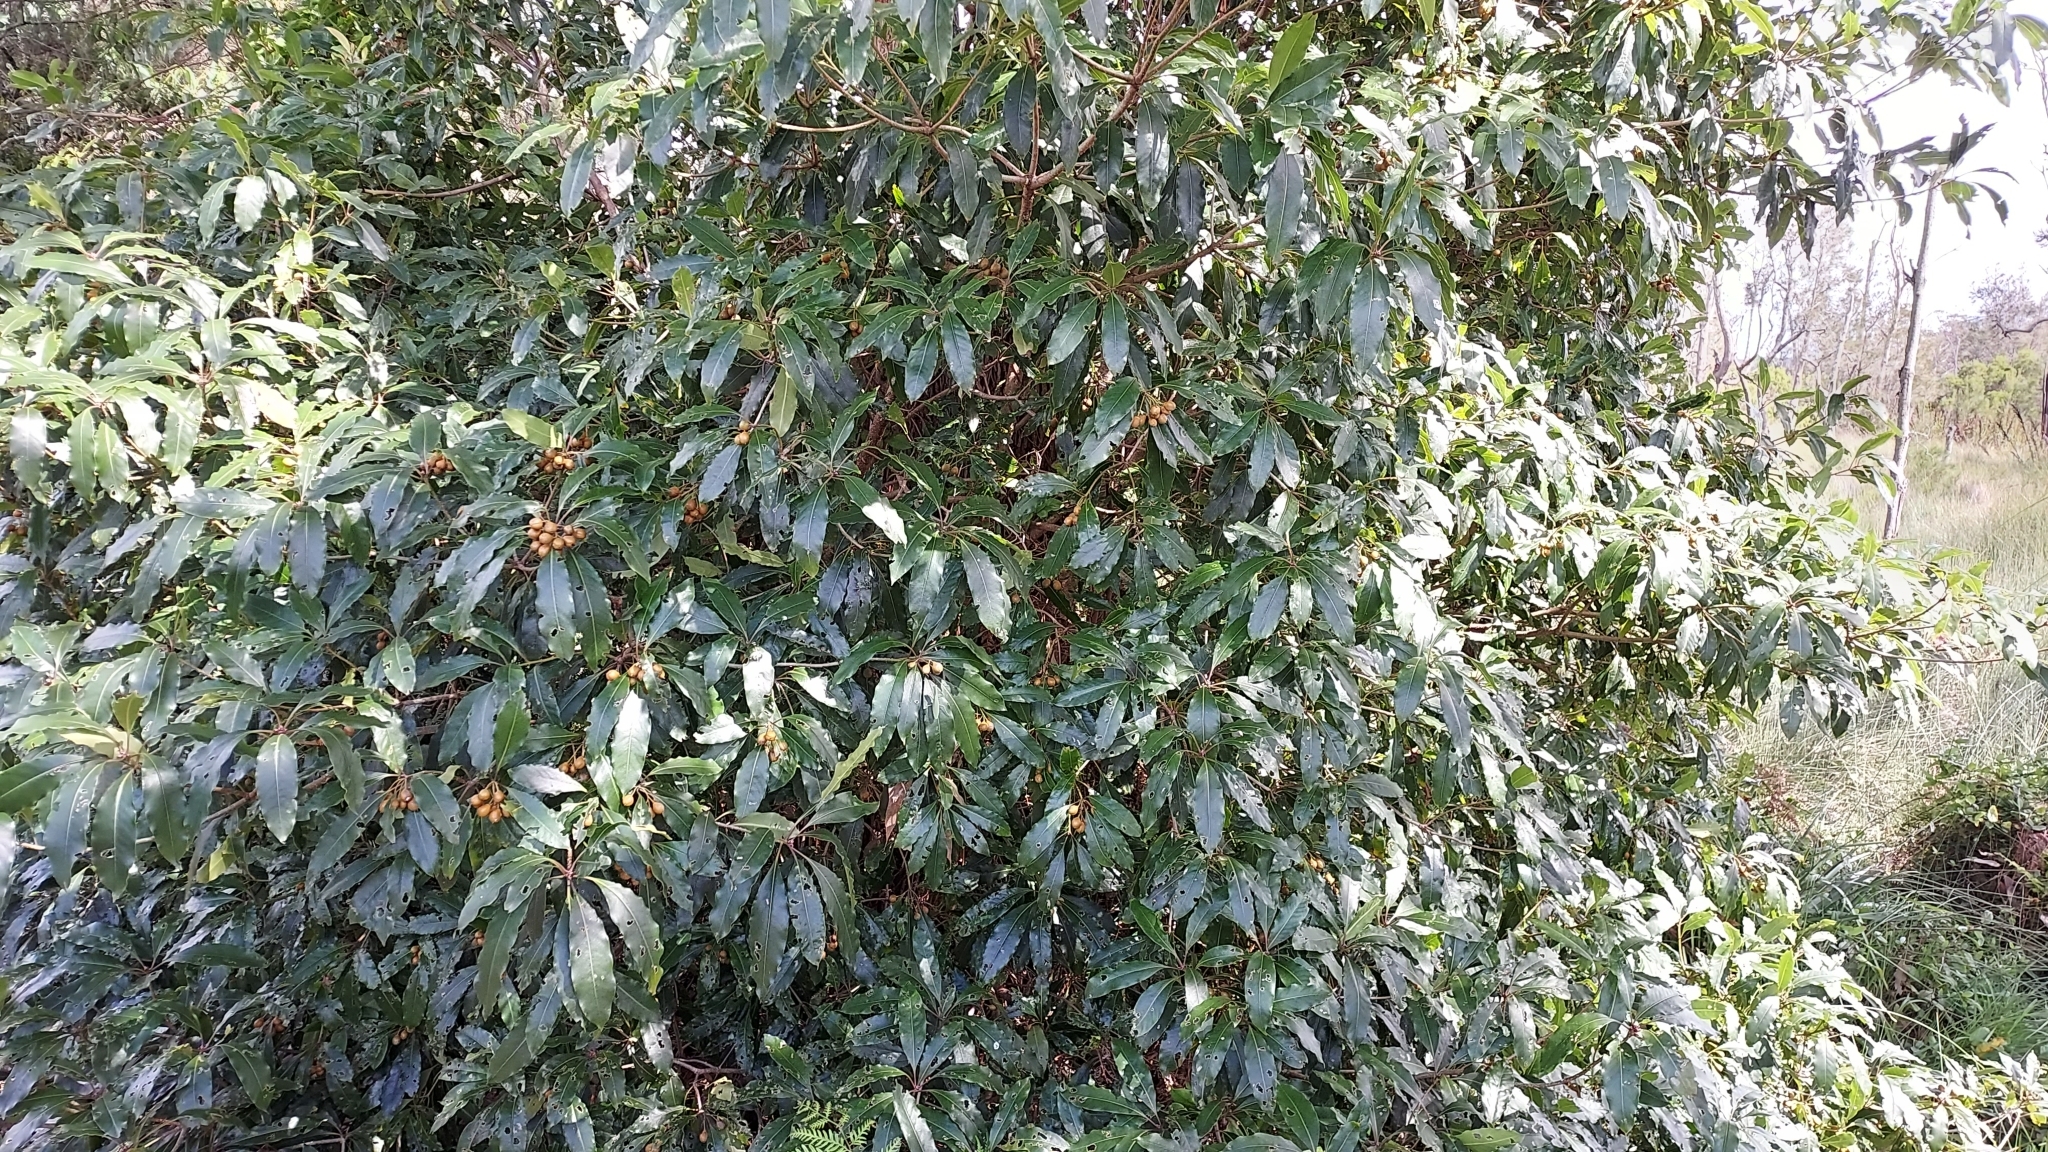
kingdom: Plantae
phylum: Tracheophyta
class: Magnoliopsida
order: Apiales
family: Pittosporaceae
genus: Pittosporum
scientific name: Pittosporum undulatum
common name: Australian cheesewood
